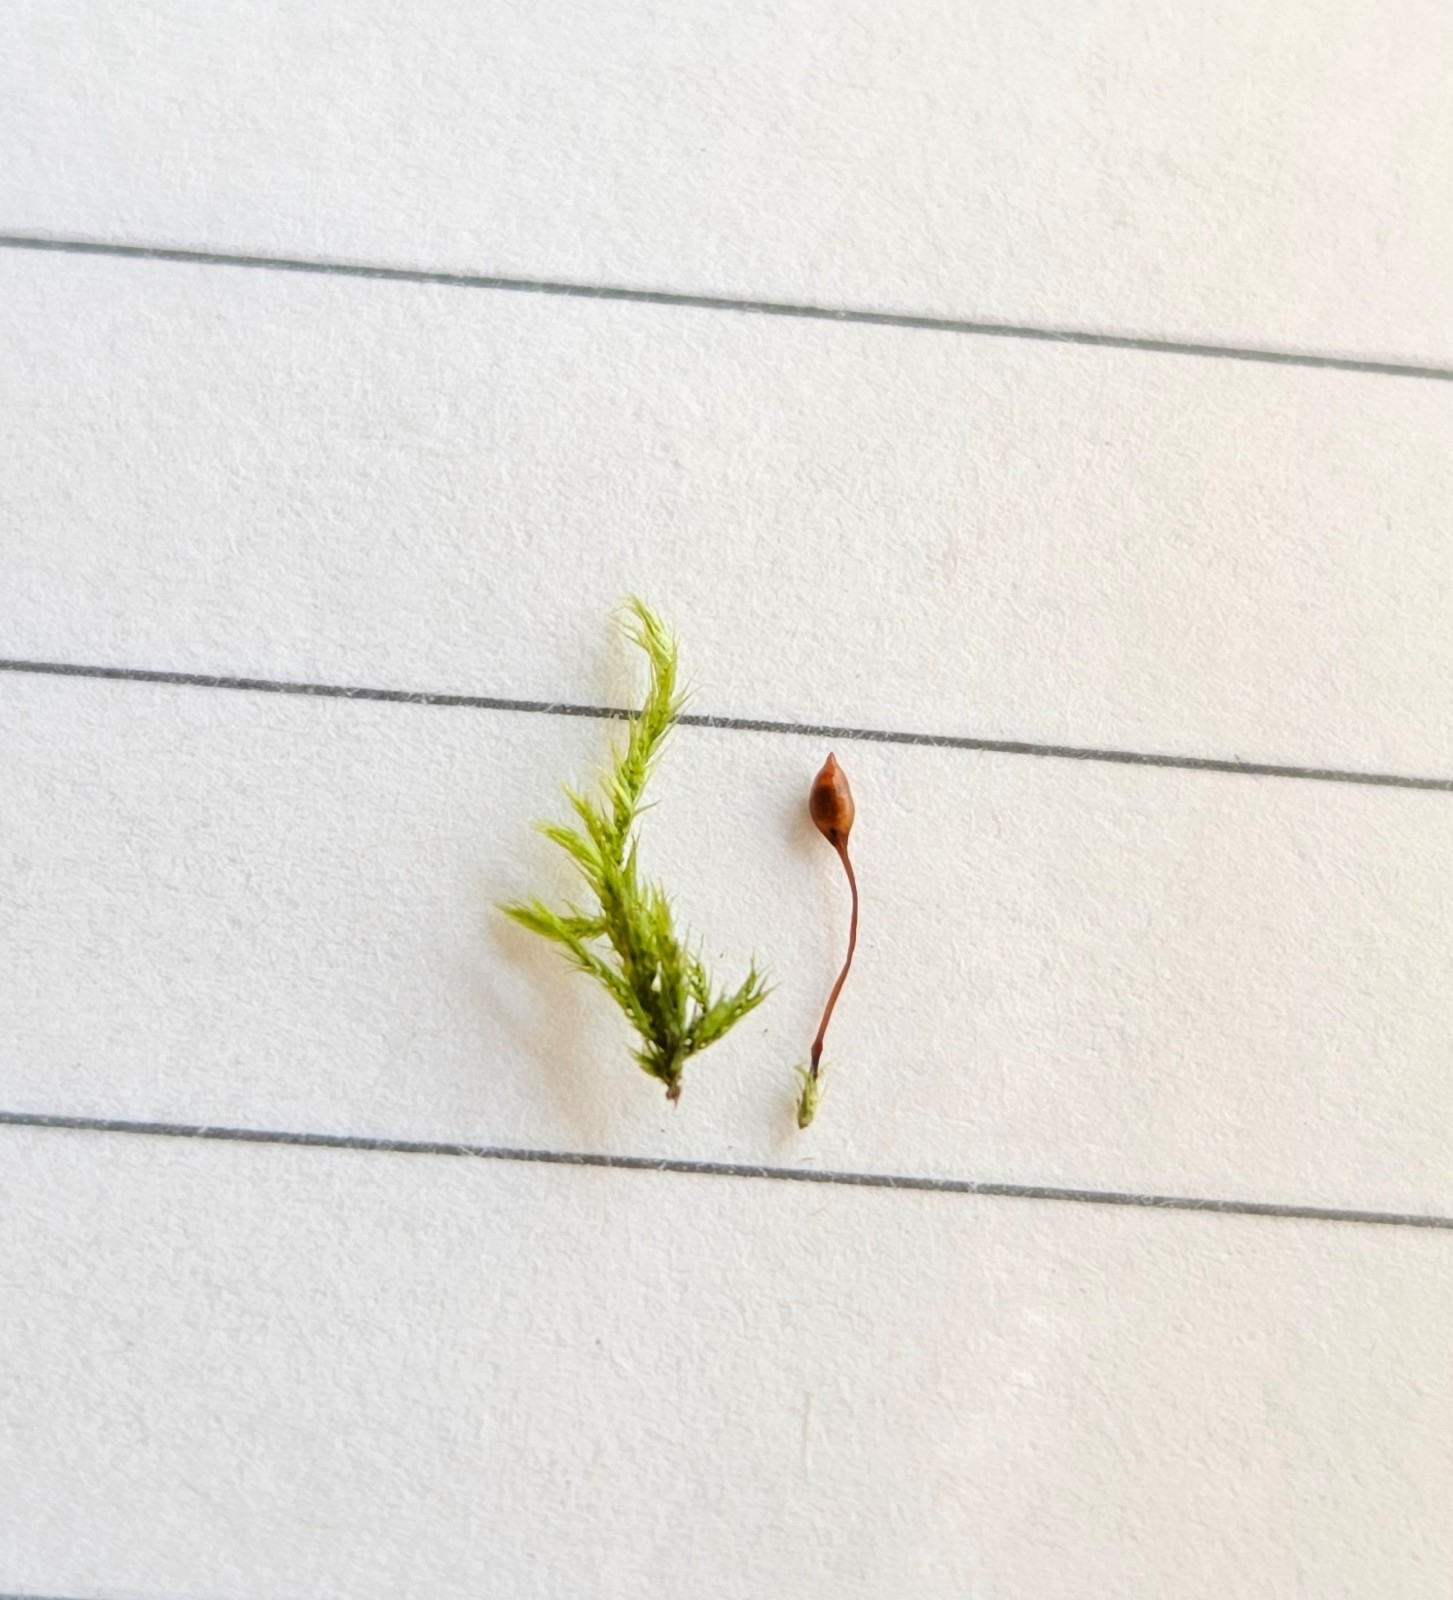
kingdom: Plantae
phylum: Bryophyta
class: Bryopsida
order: Hypnales
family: Brachytheciaceae
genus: Sciuro-hypnum
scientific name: Sciuro-hypnum populeum
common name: Matted feather-moss
